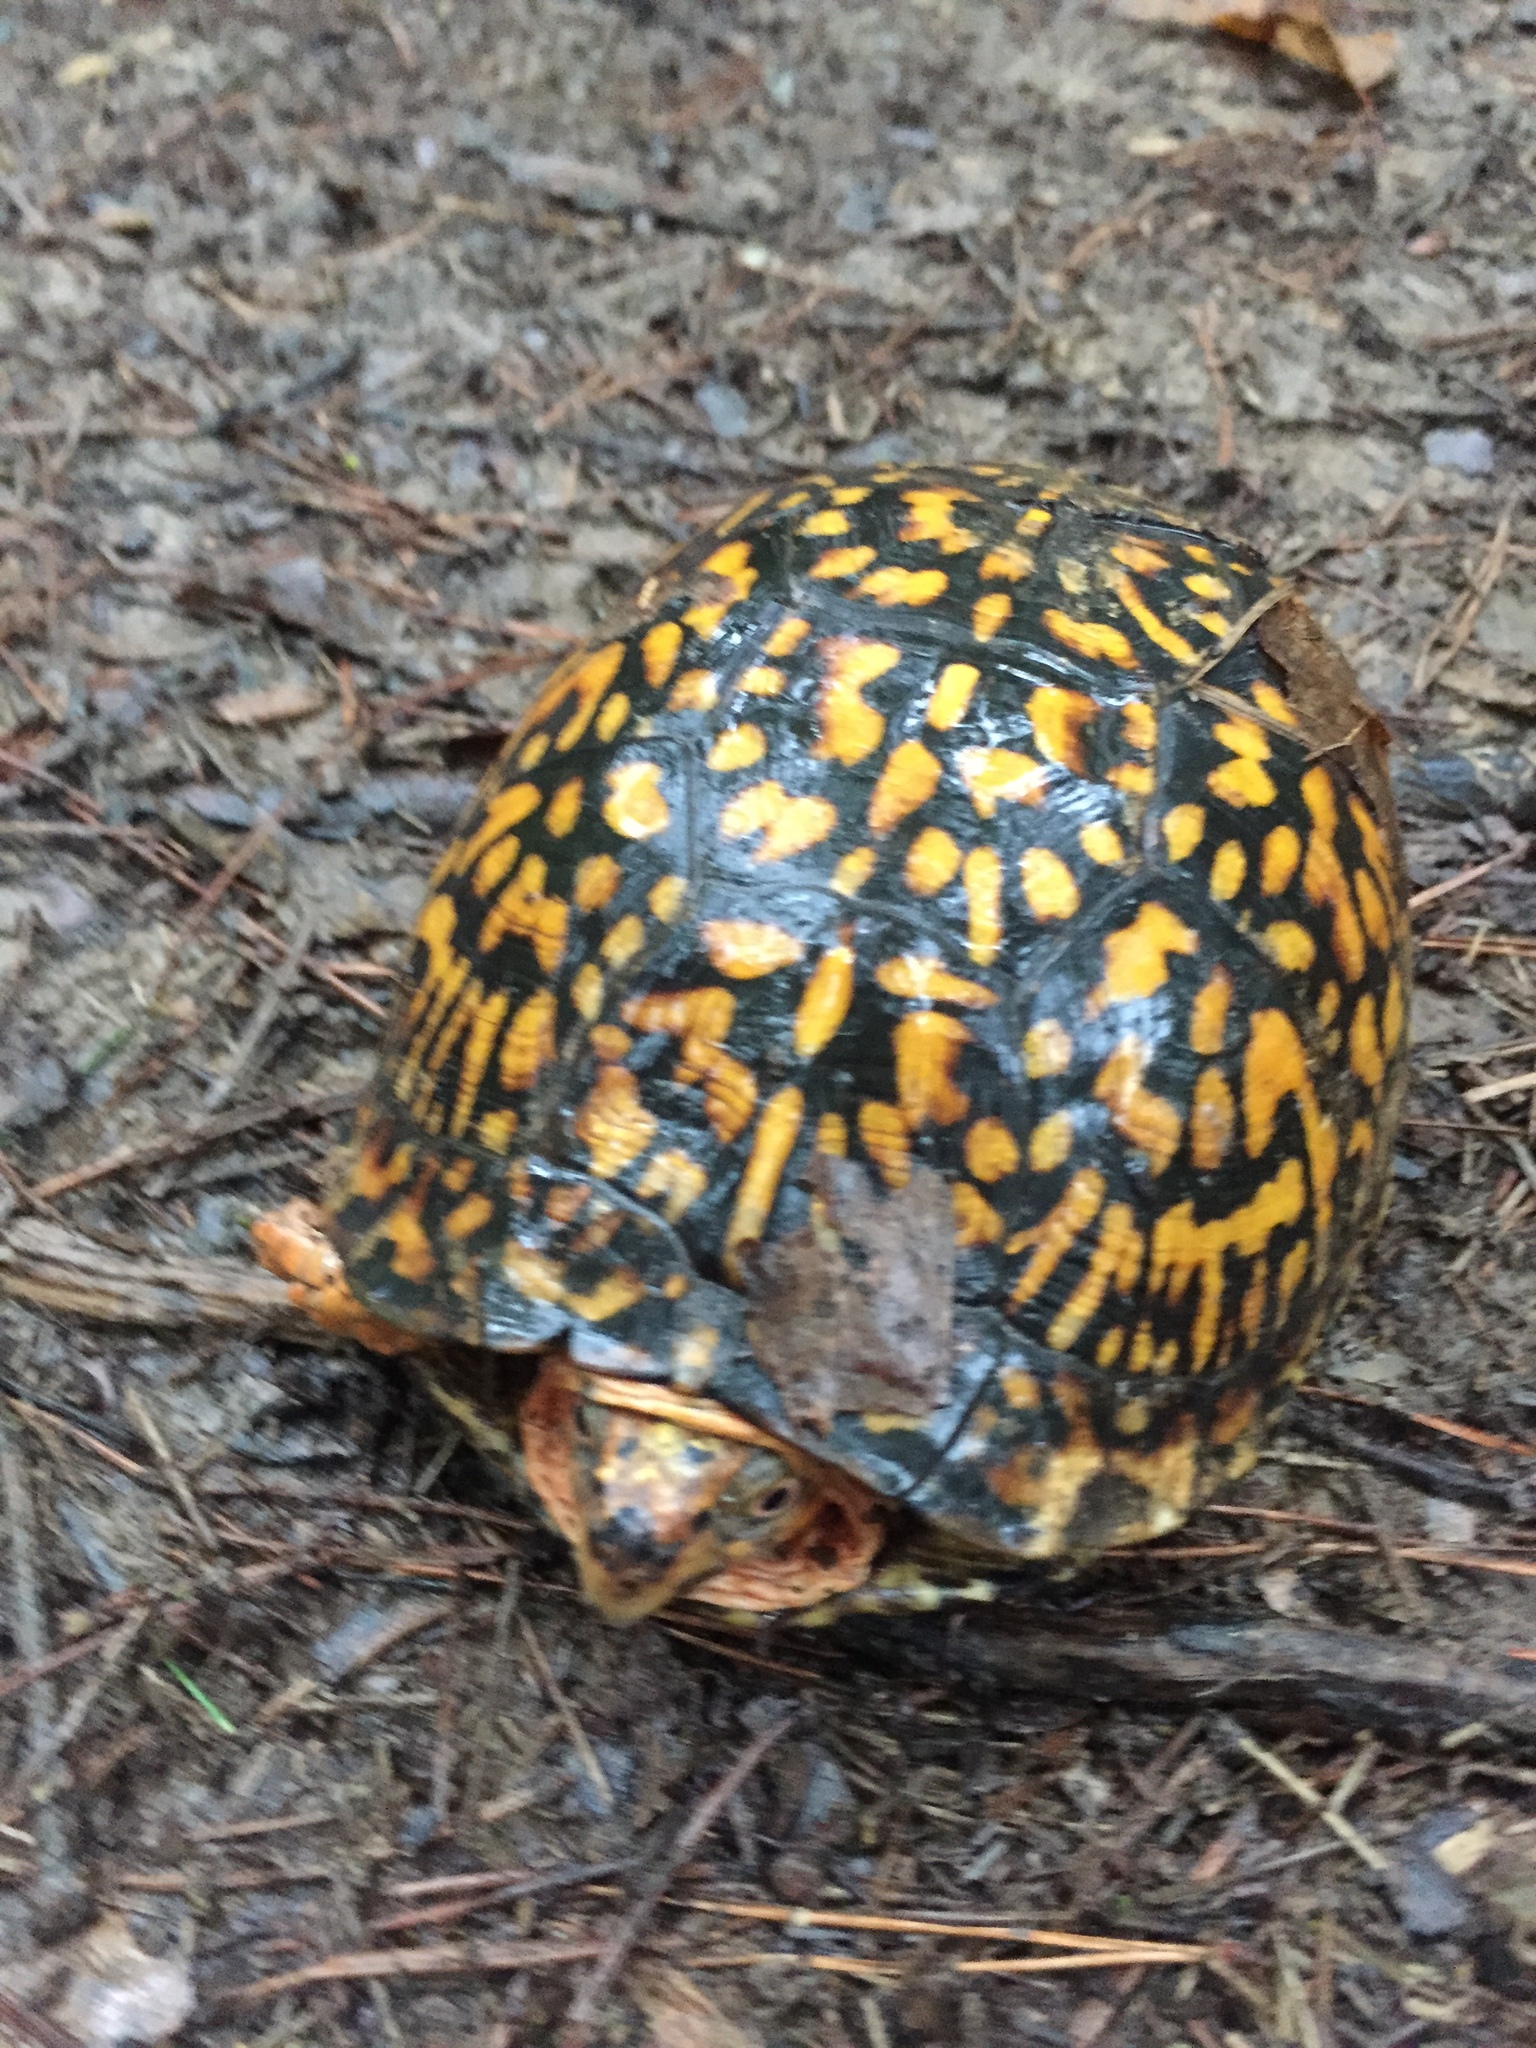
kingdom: Animalia
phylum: Chordata
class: Testudines
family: Emydidae
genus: Terrapene
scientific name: Terrapene carolina
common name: Common box turtle
